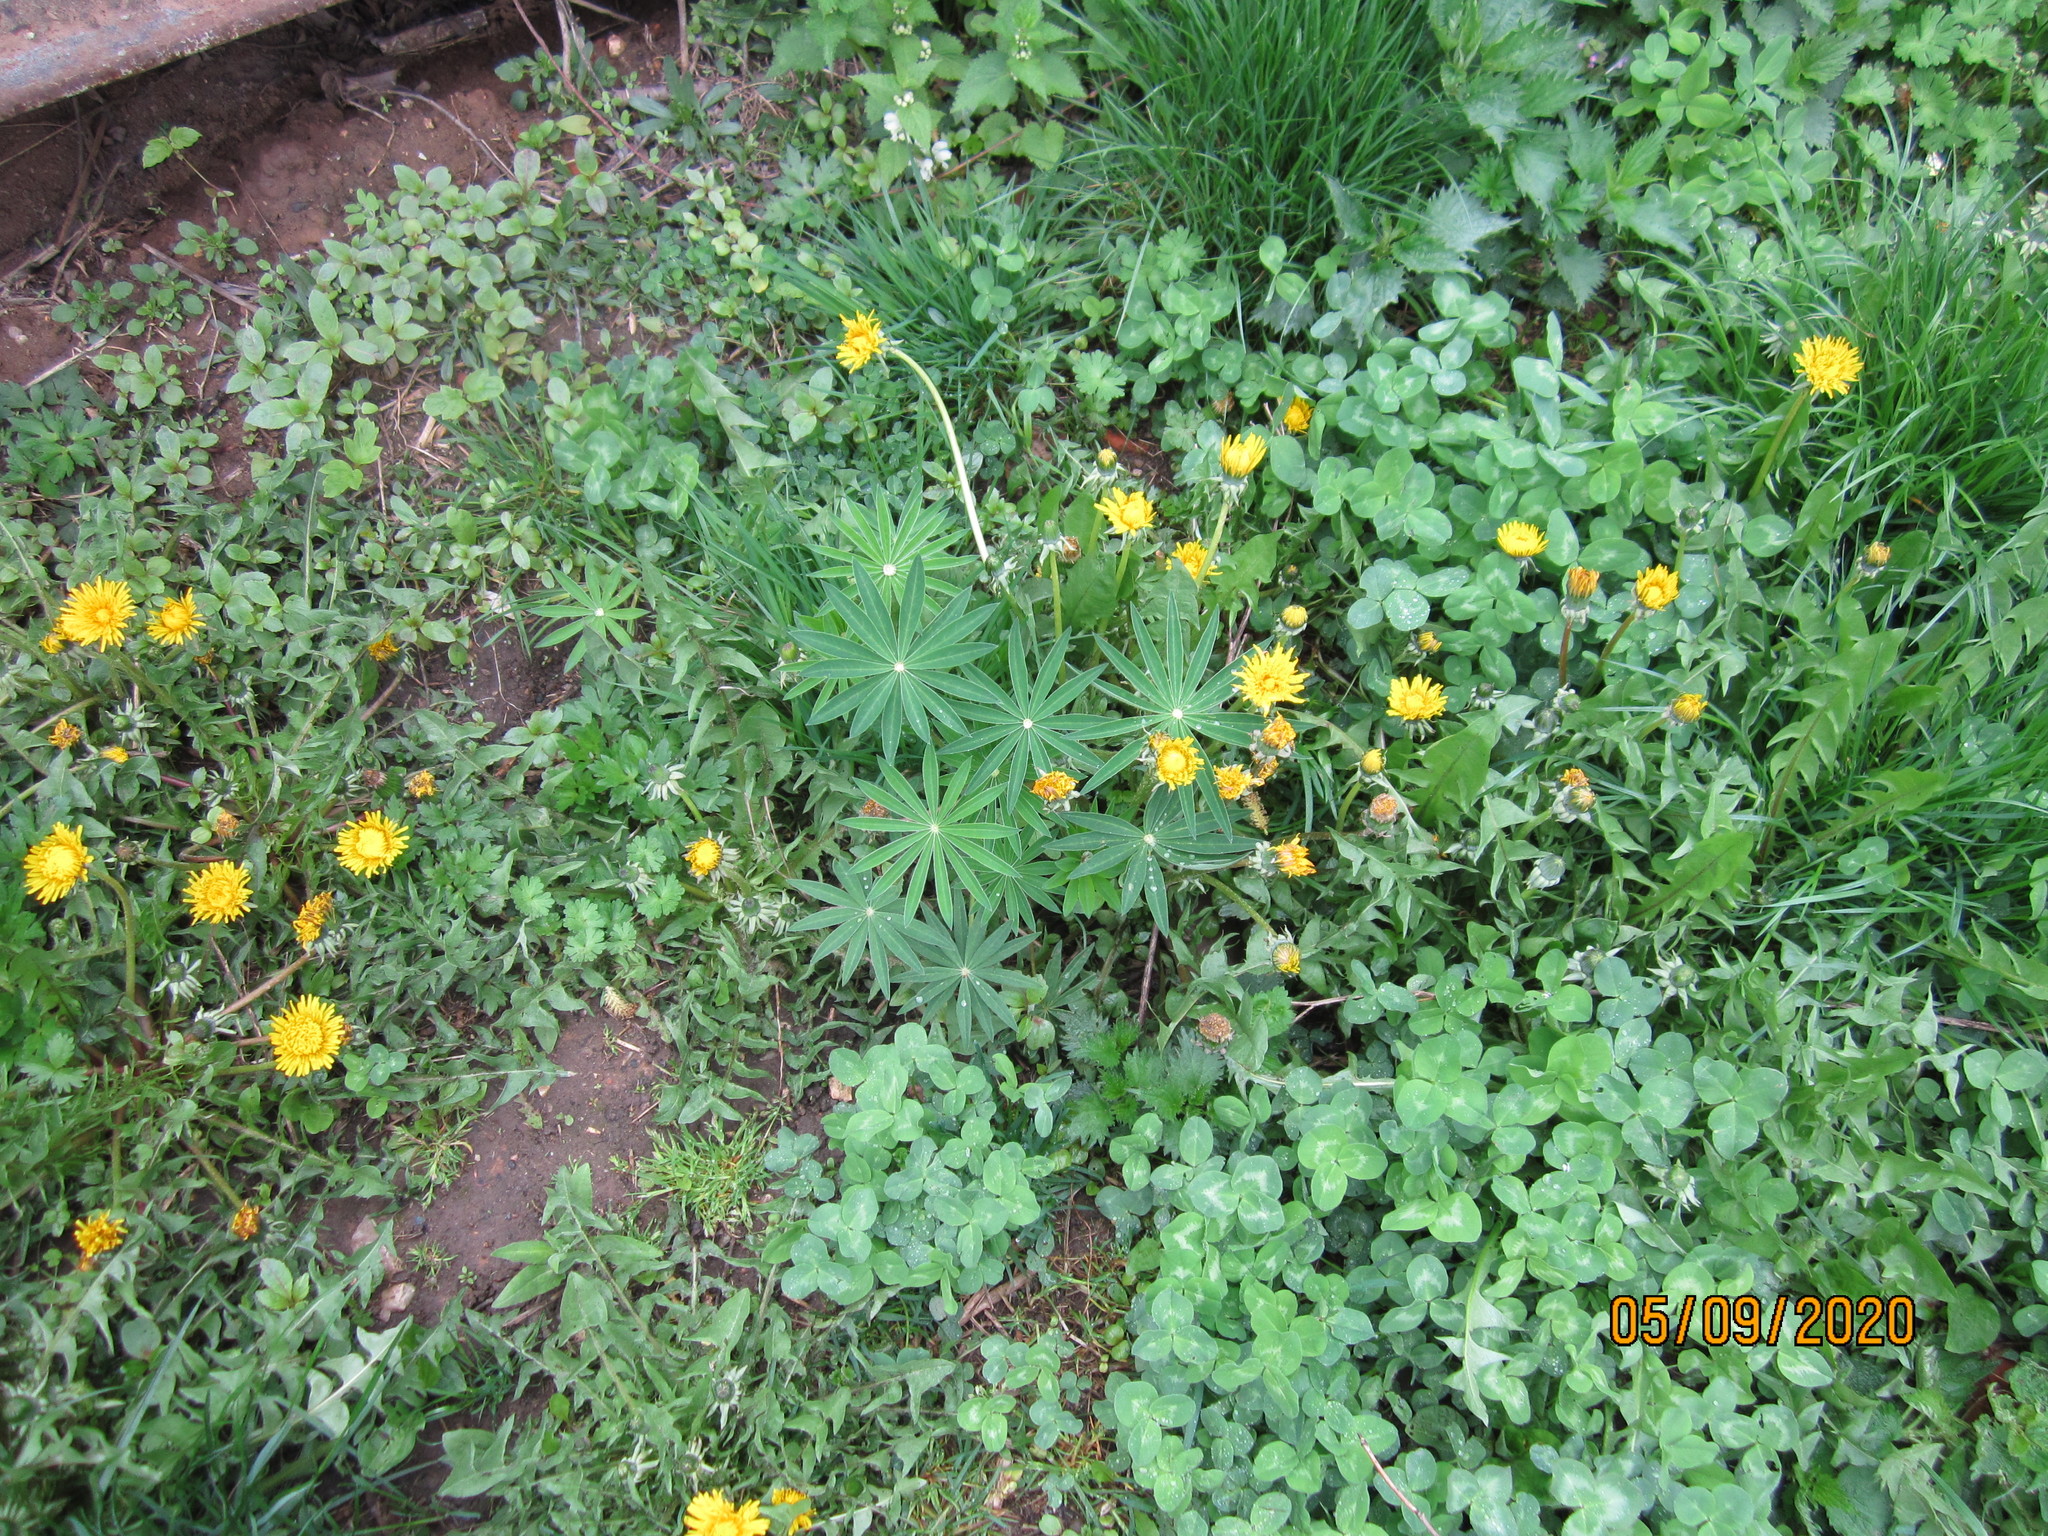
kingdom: Plantae
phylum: Tracheophyta
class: Magnoliopsida
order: Fabales
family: Fabaceae
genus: Lupinus
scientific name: Lupinus polyphyllus
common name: Garden lupin
